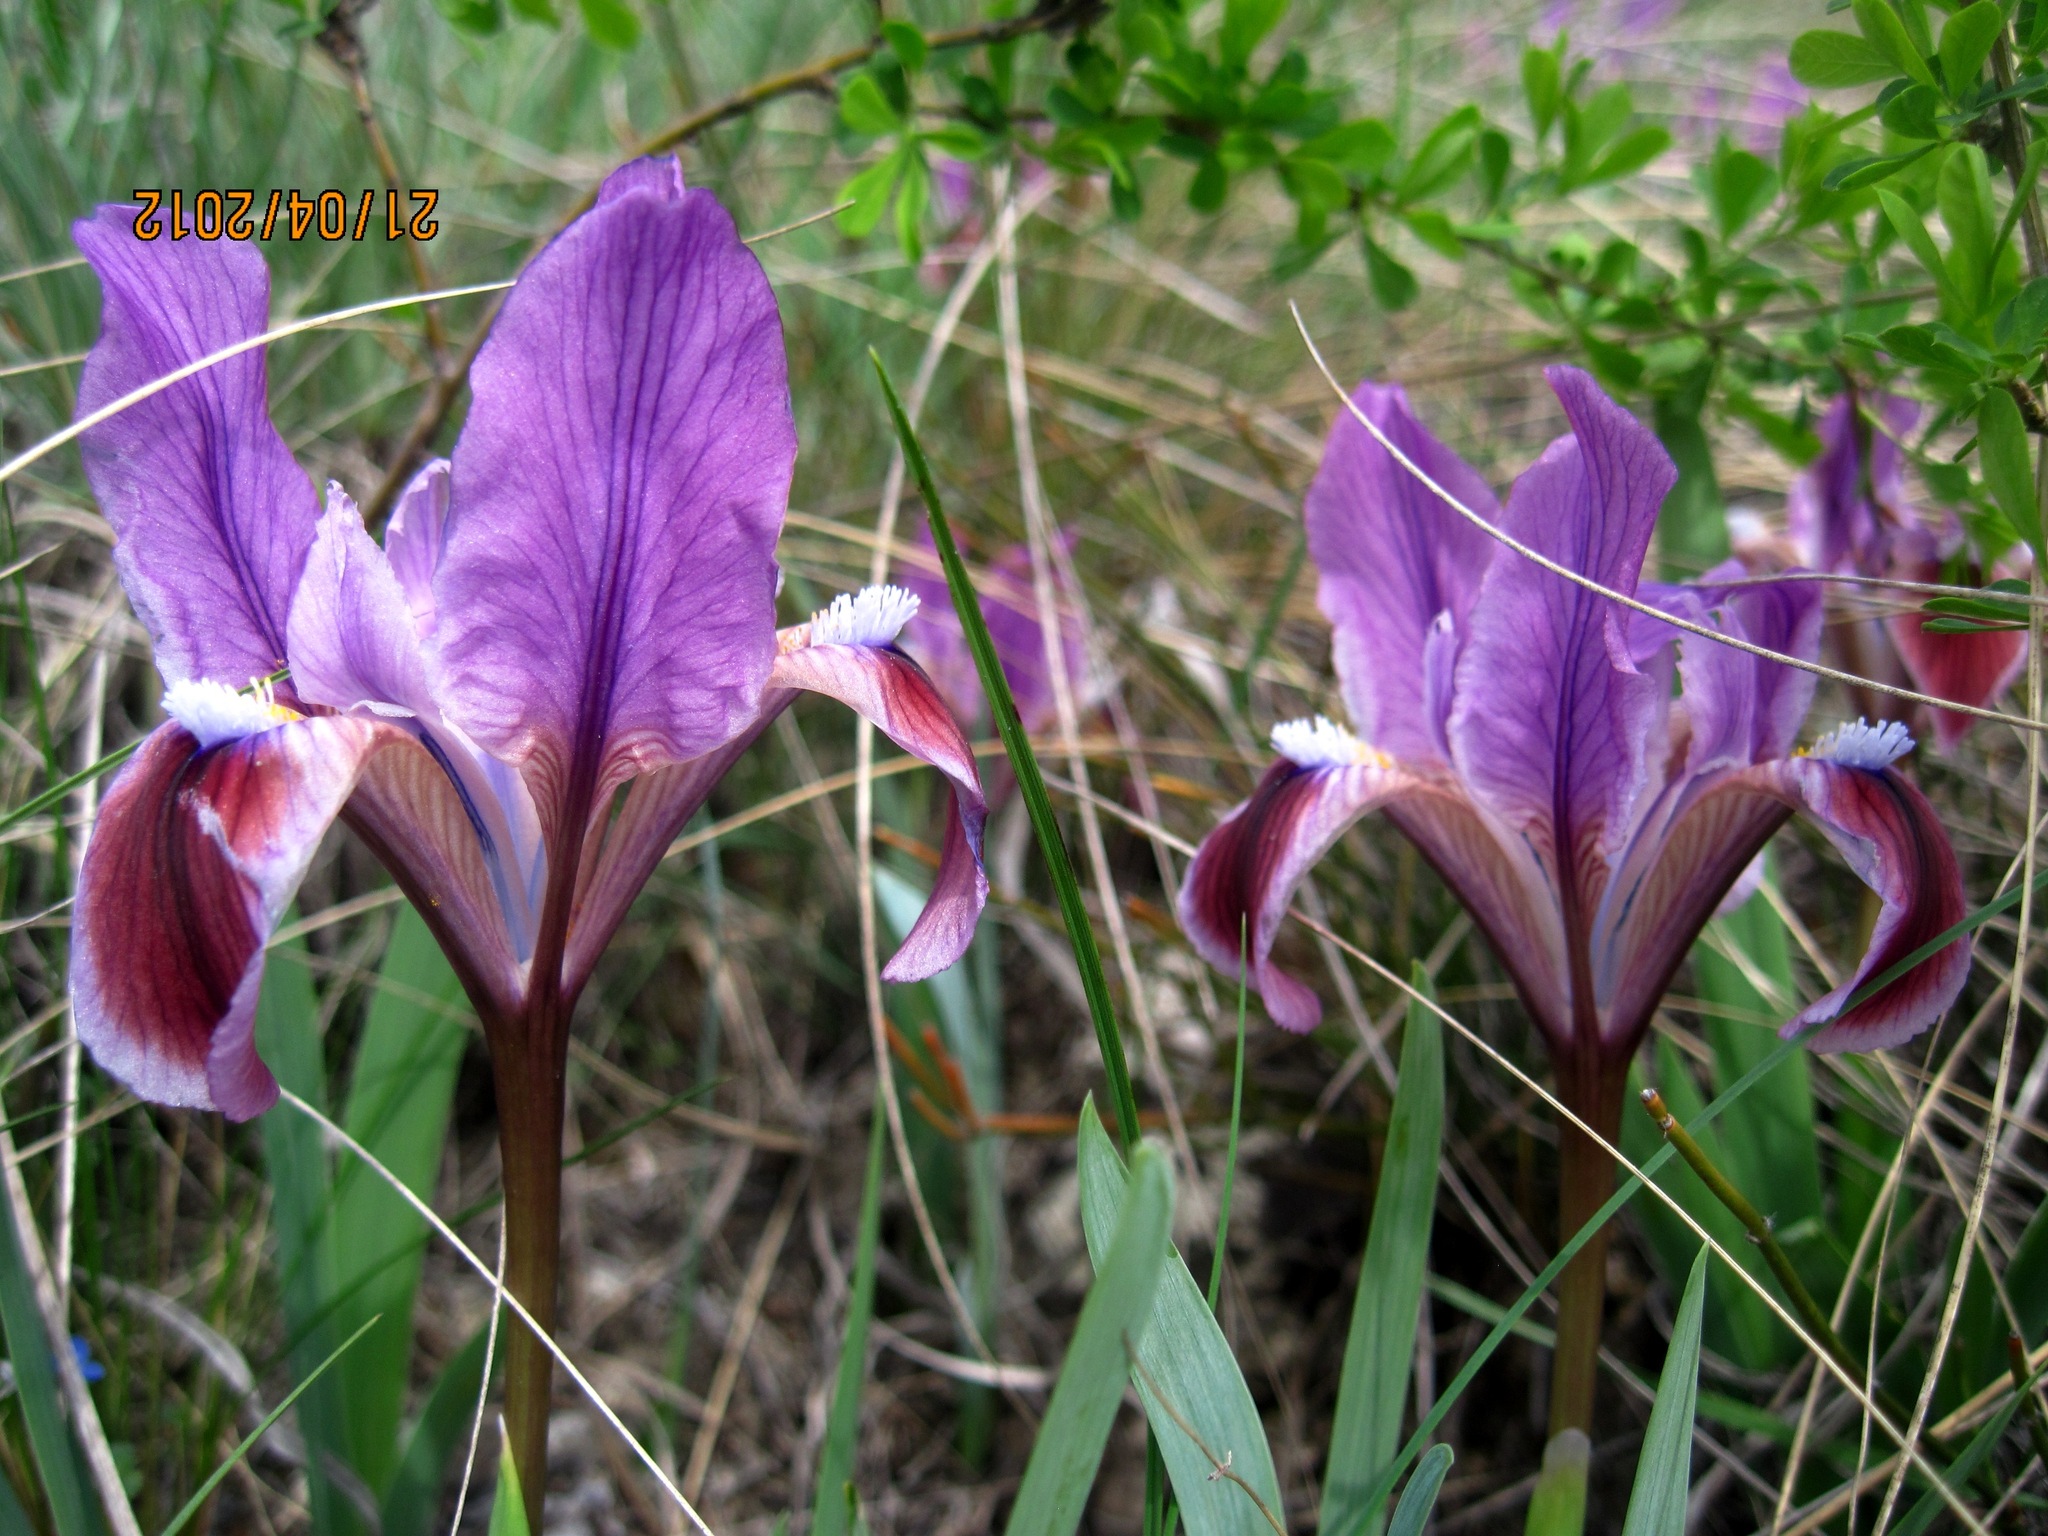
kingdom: Plantae
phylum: Tracheophyta
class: Liliopsida
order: Asparagales
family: Iridaceae
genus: Iris
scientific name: Iris pumila
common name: Dwarf iris
